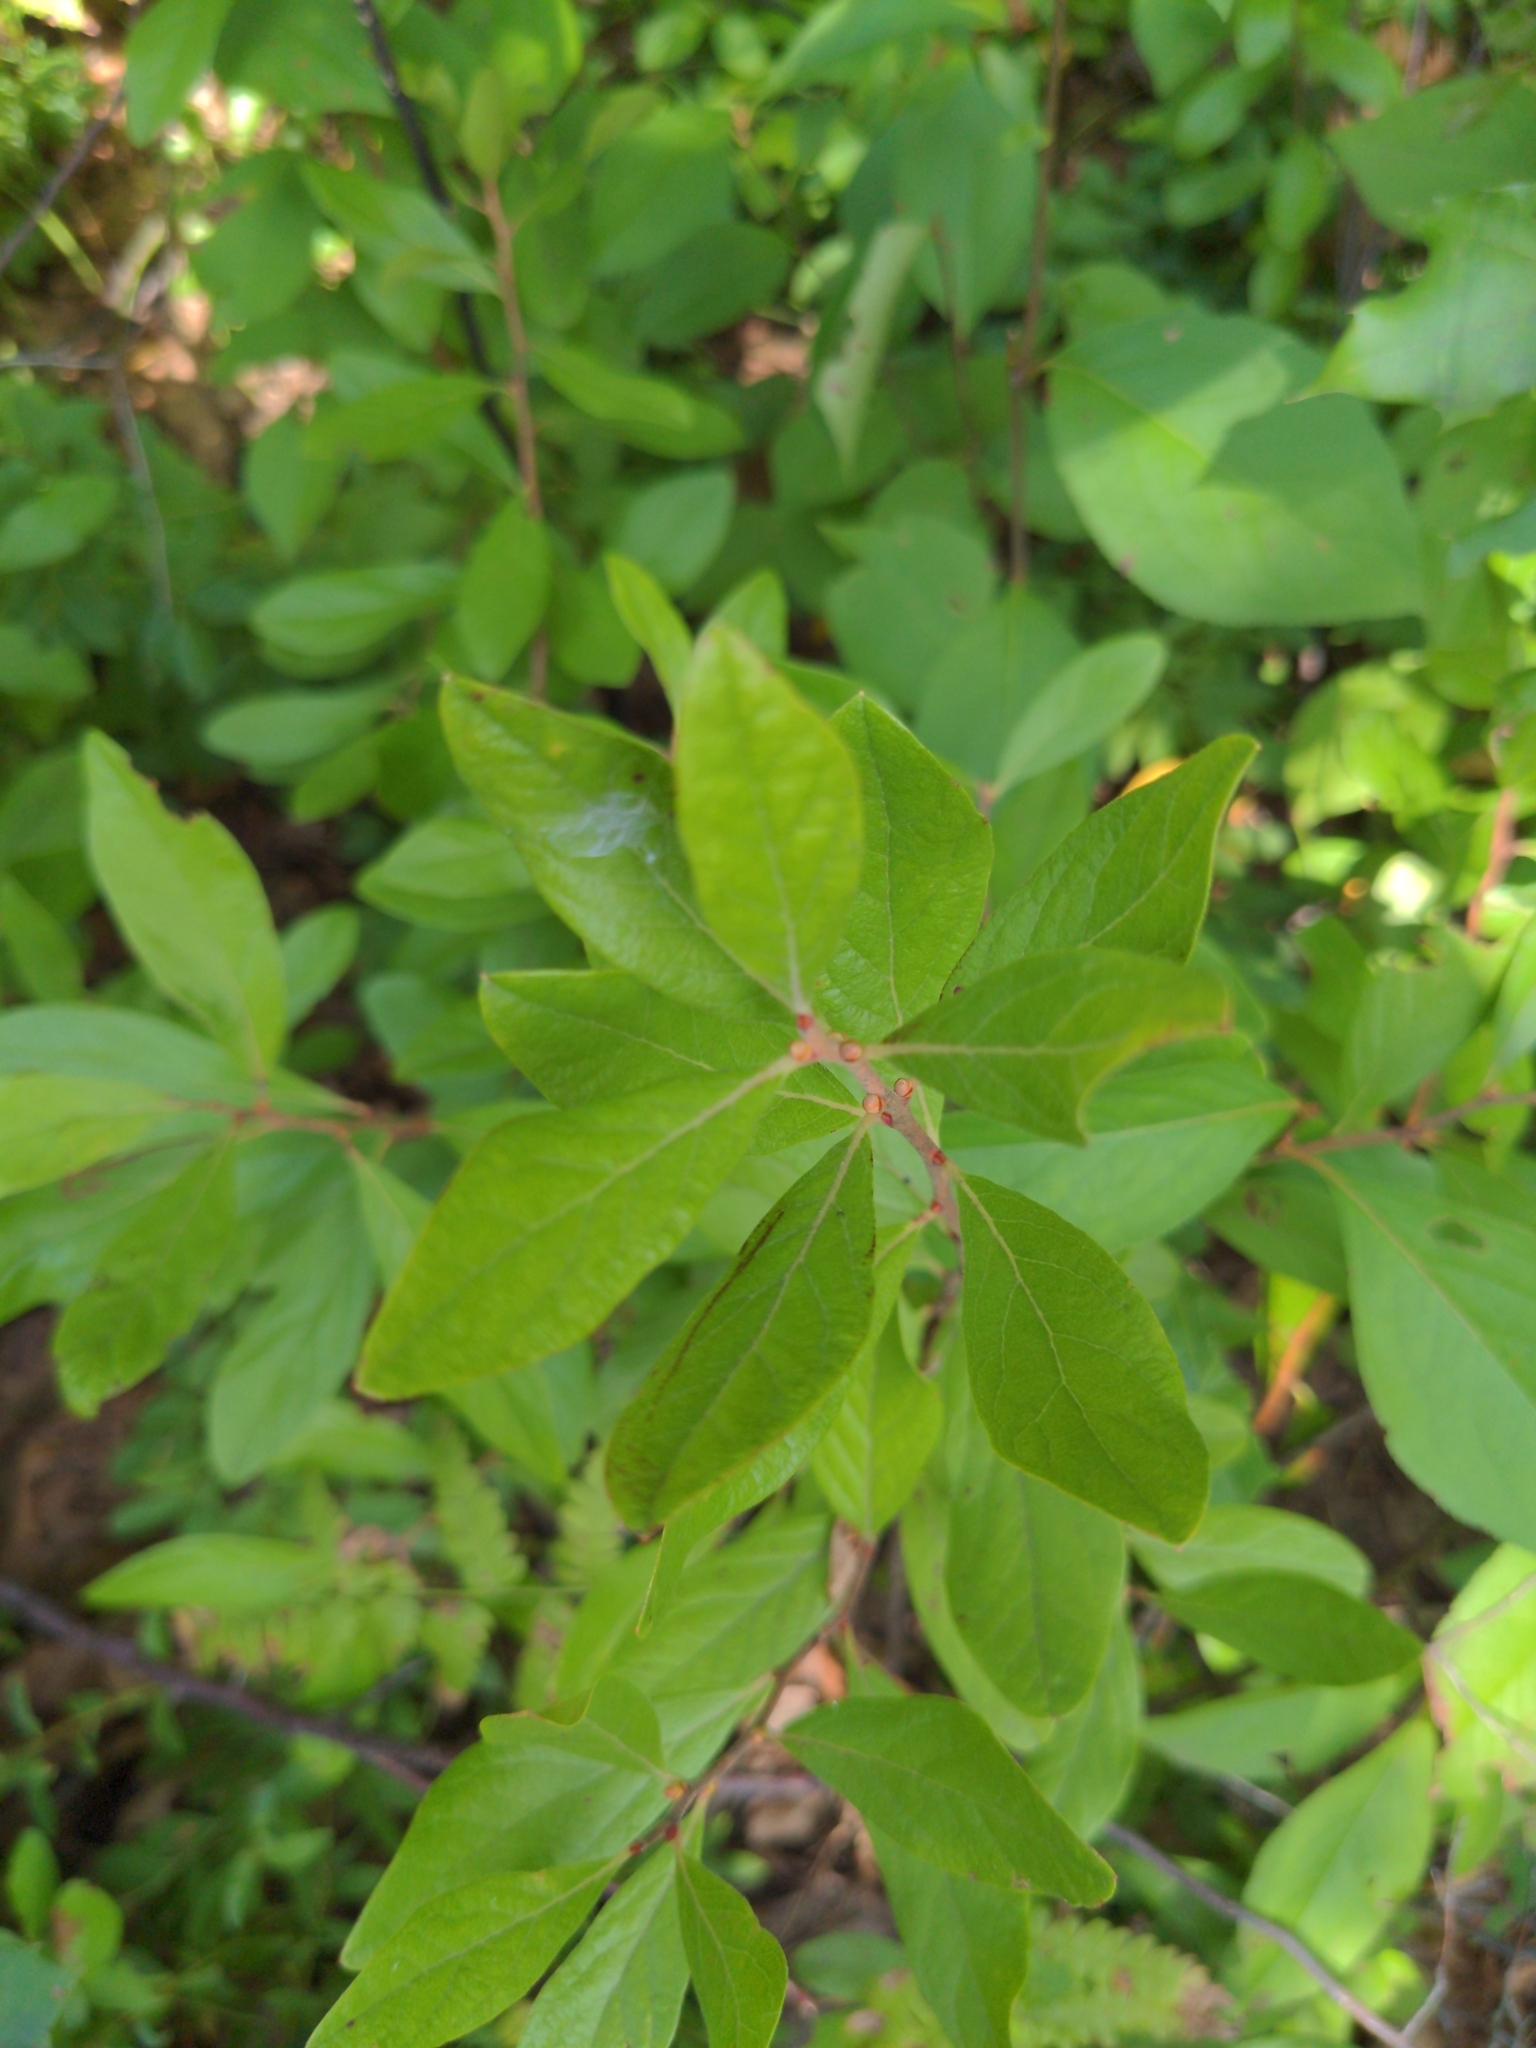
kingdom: Plantae
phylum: Tracheophyta
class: Magnoliopsida
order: Ericales
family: Ericaceae
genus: Gaylussacia
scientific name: Gaylussacia baccata
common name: Black huckleberry
